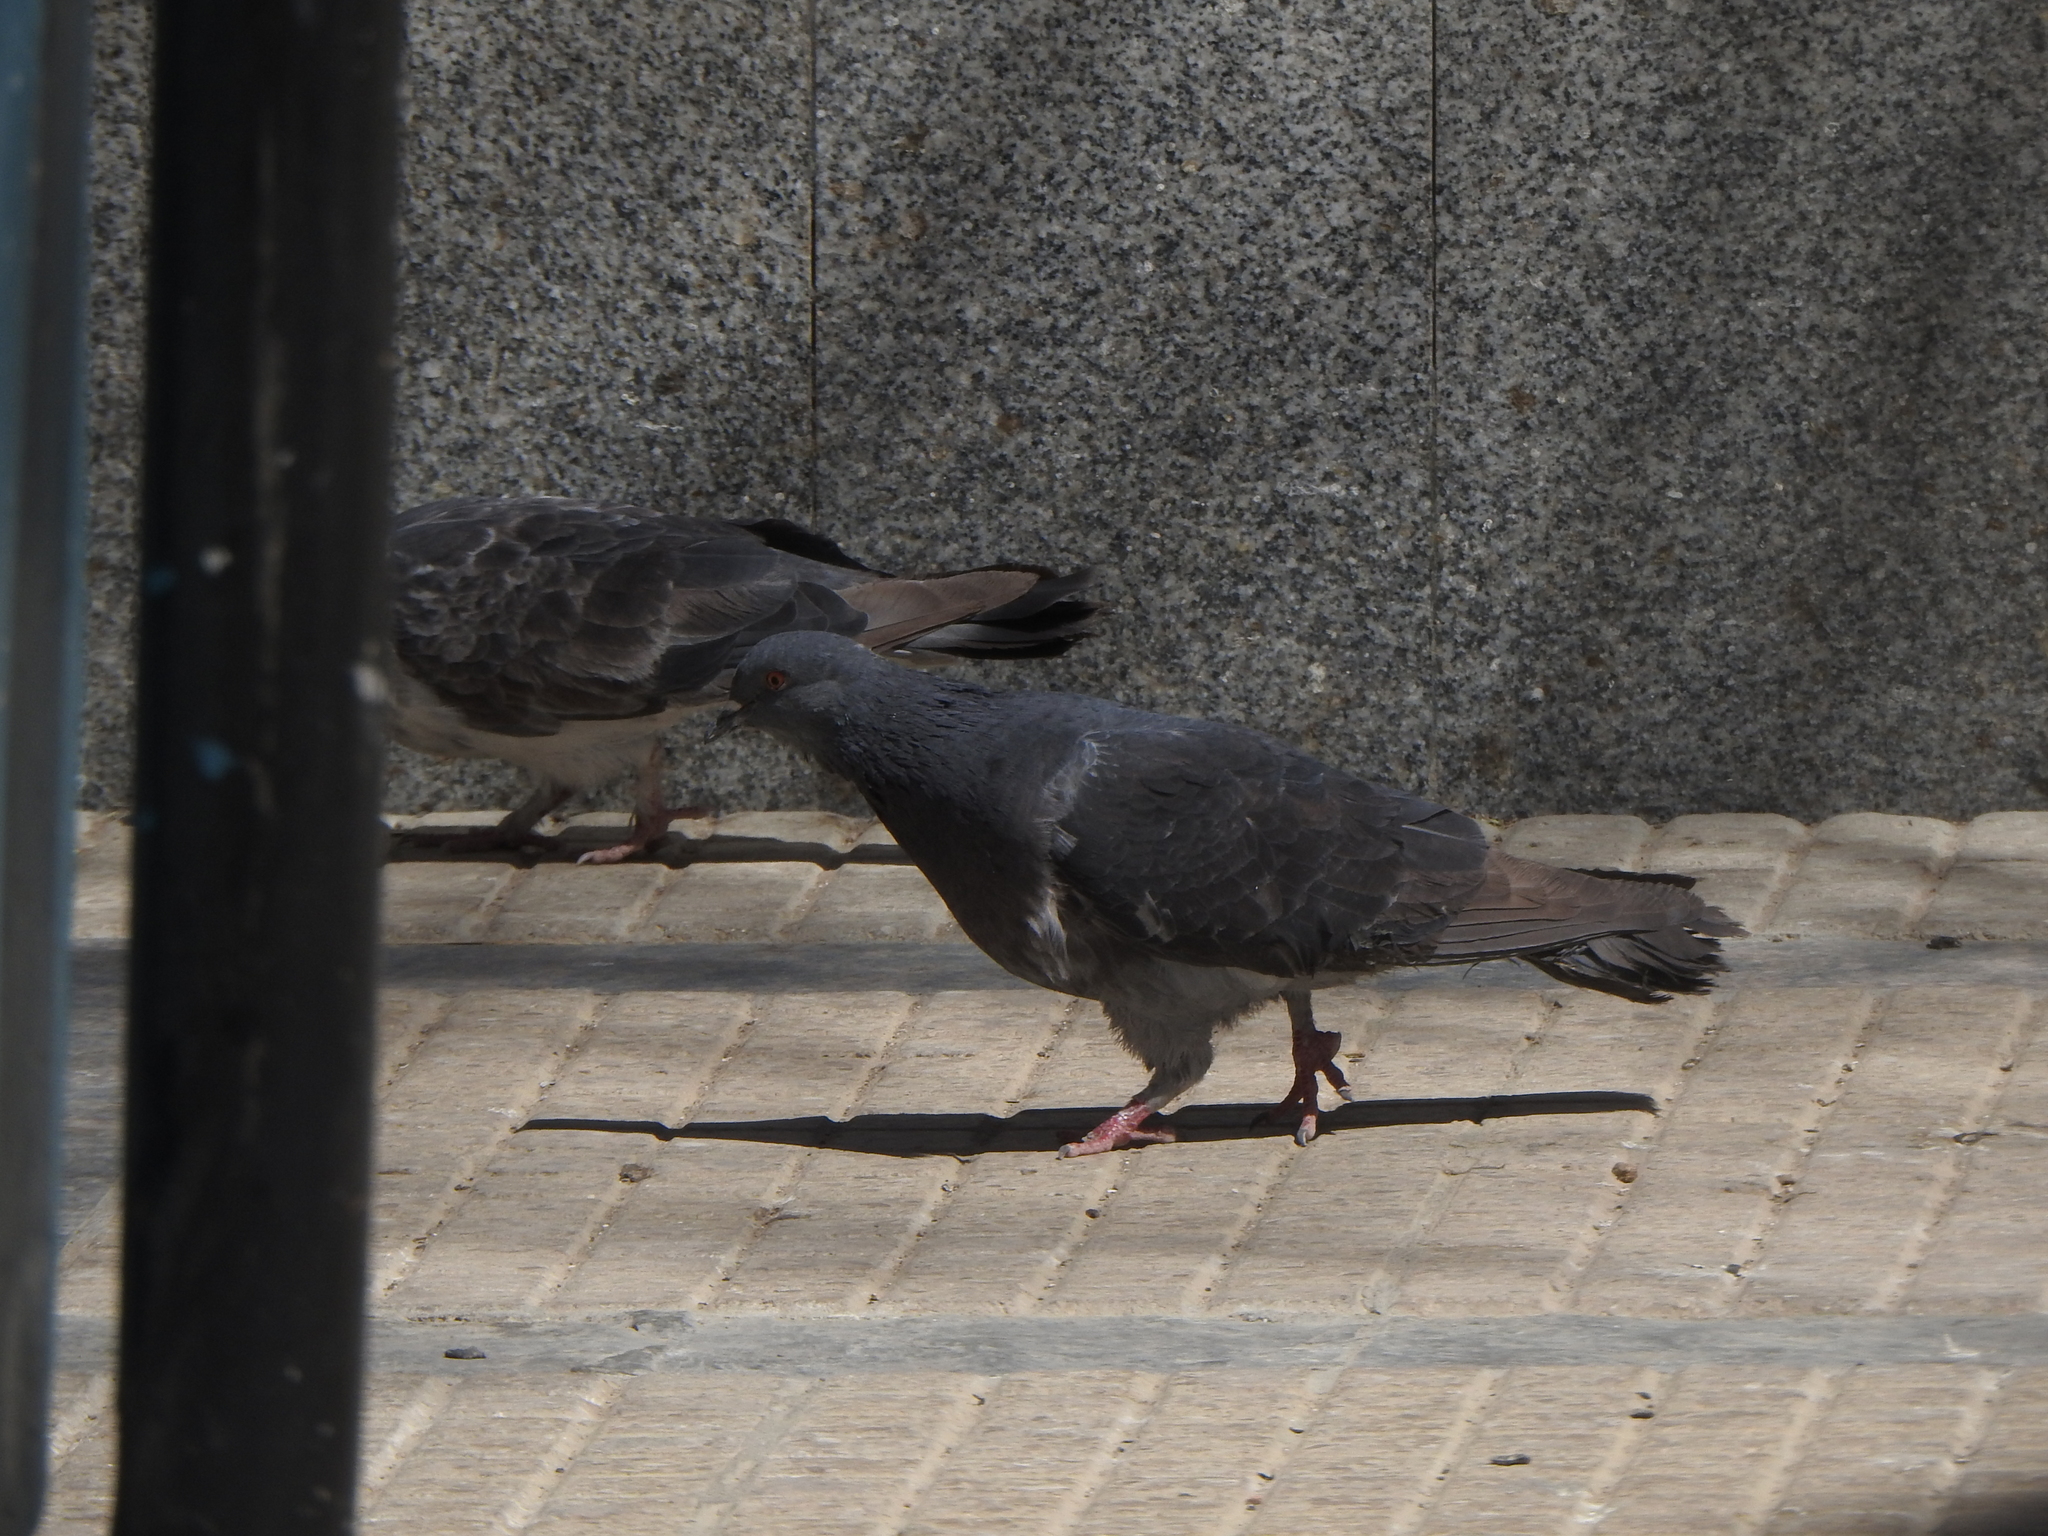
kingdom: Animalia
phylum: Chordata
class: Aves
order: Columbiformes
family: Columbidae
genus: Columba
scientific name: Columba livia
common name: Rock pigeon
